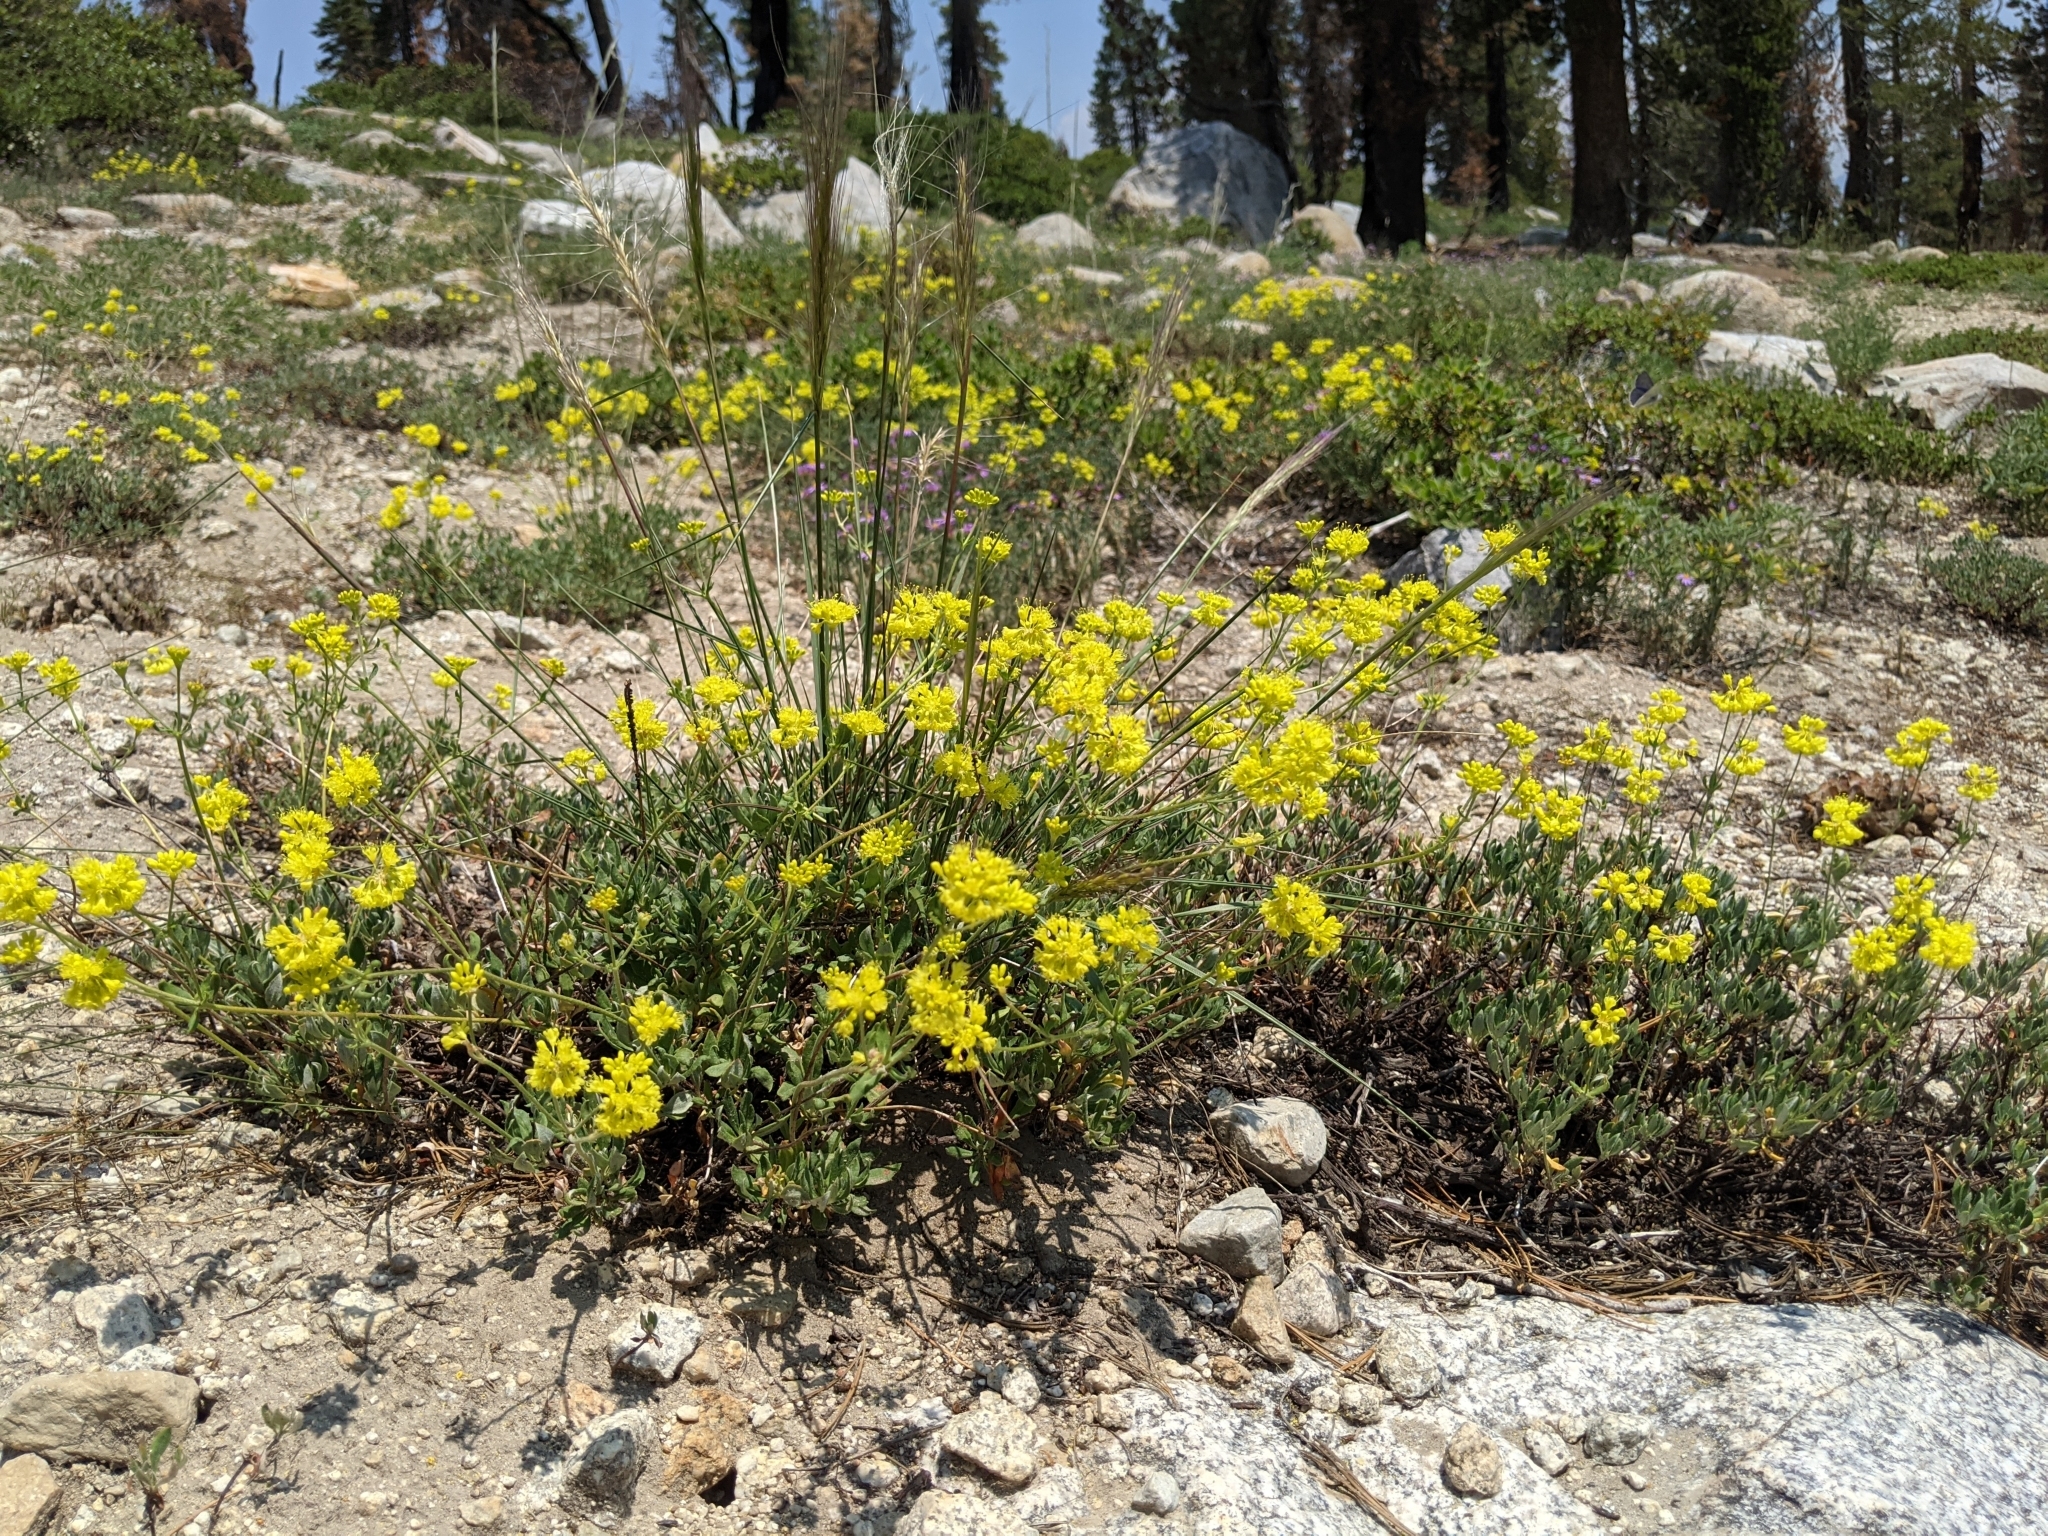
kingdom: Plantae
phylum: Tracheophyta
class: Magnoliopsida
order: Caryophyllales
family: Polygonaceae
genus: Eriogonum
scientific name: Eriogonum umbellatum
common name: Sulfur-buckwheat
